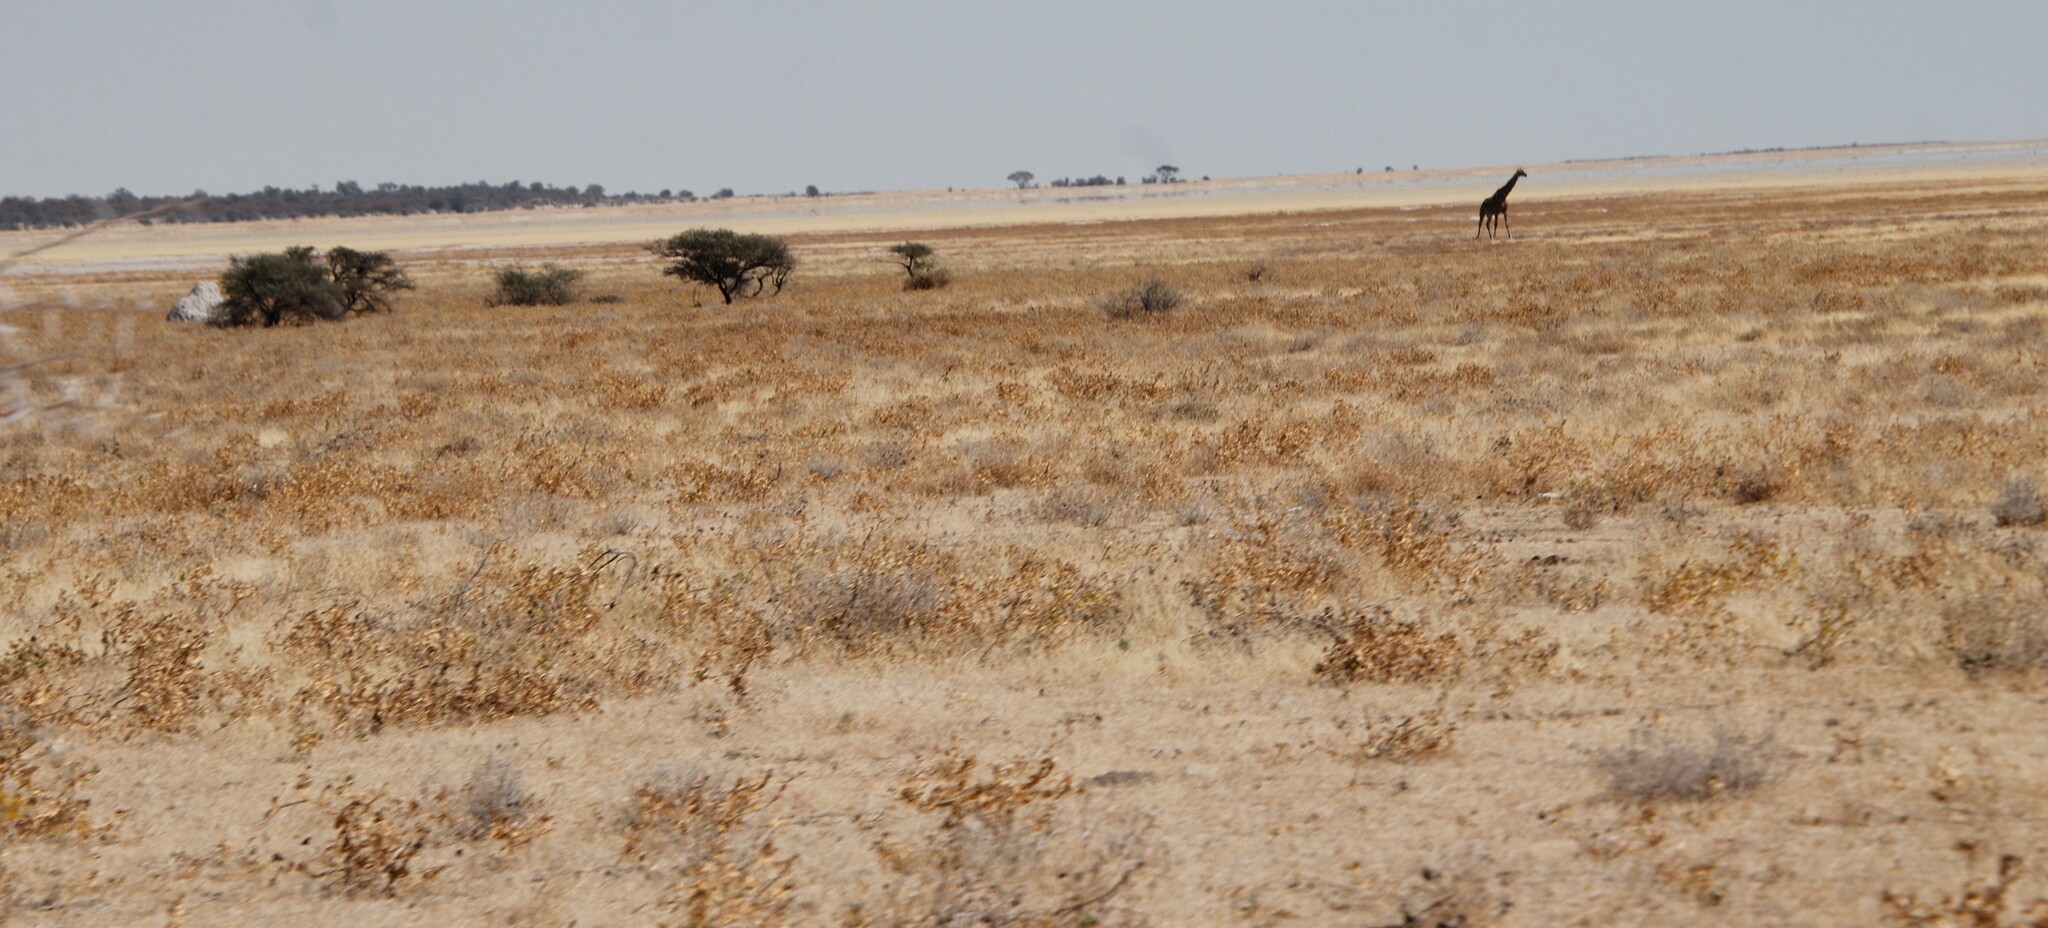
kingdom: Animalia
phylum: Chordata
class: Mammalia
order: Artiodactyla
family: Giraffidae
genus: Giraffa
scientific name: Giraffa giraffa
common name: Southern giraffe
